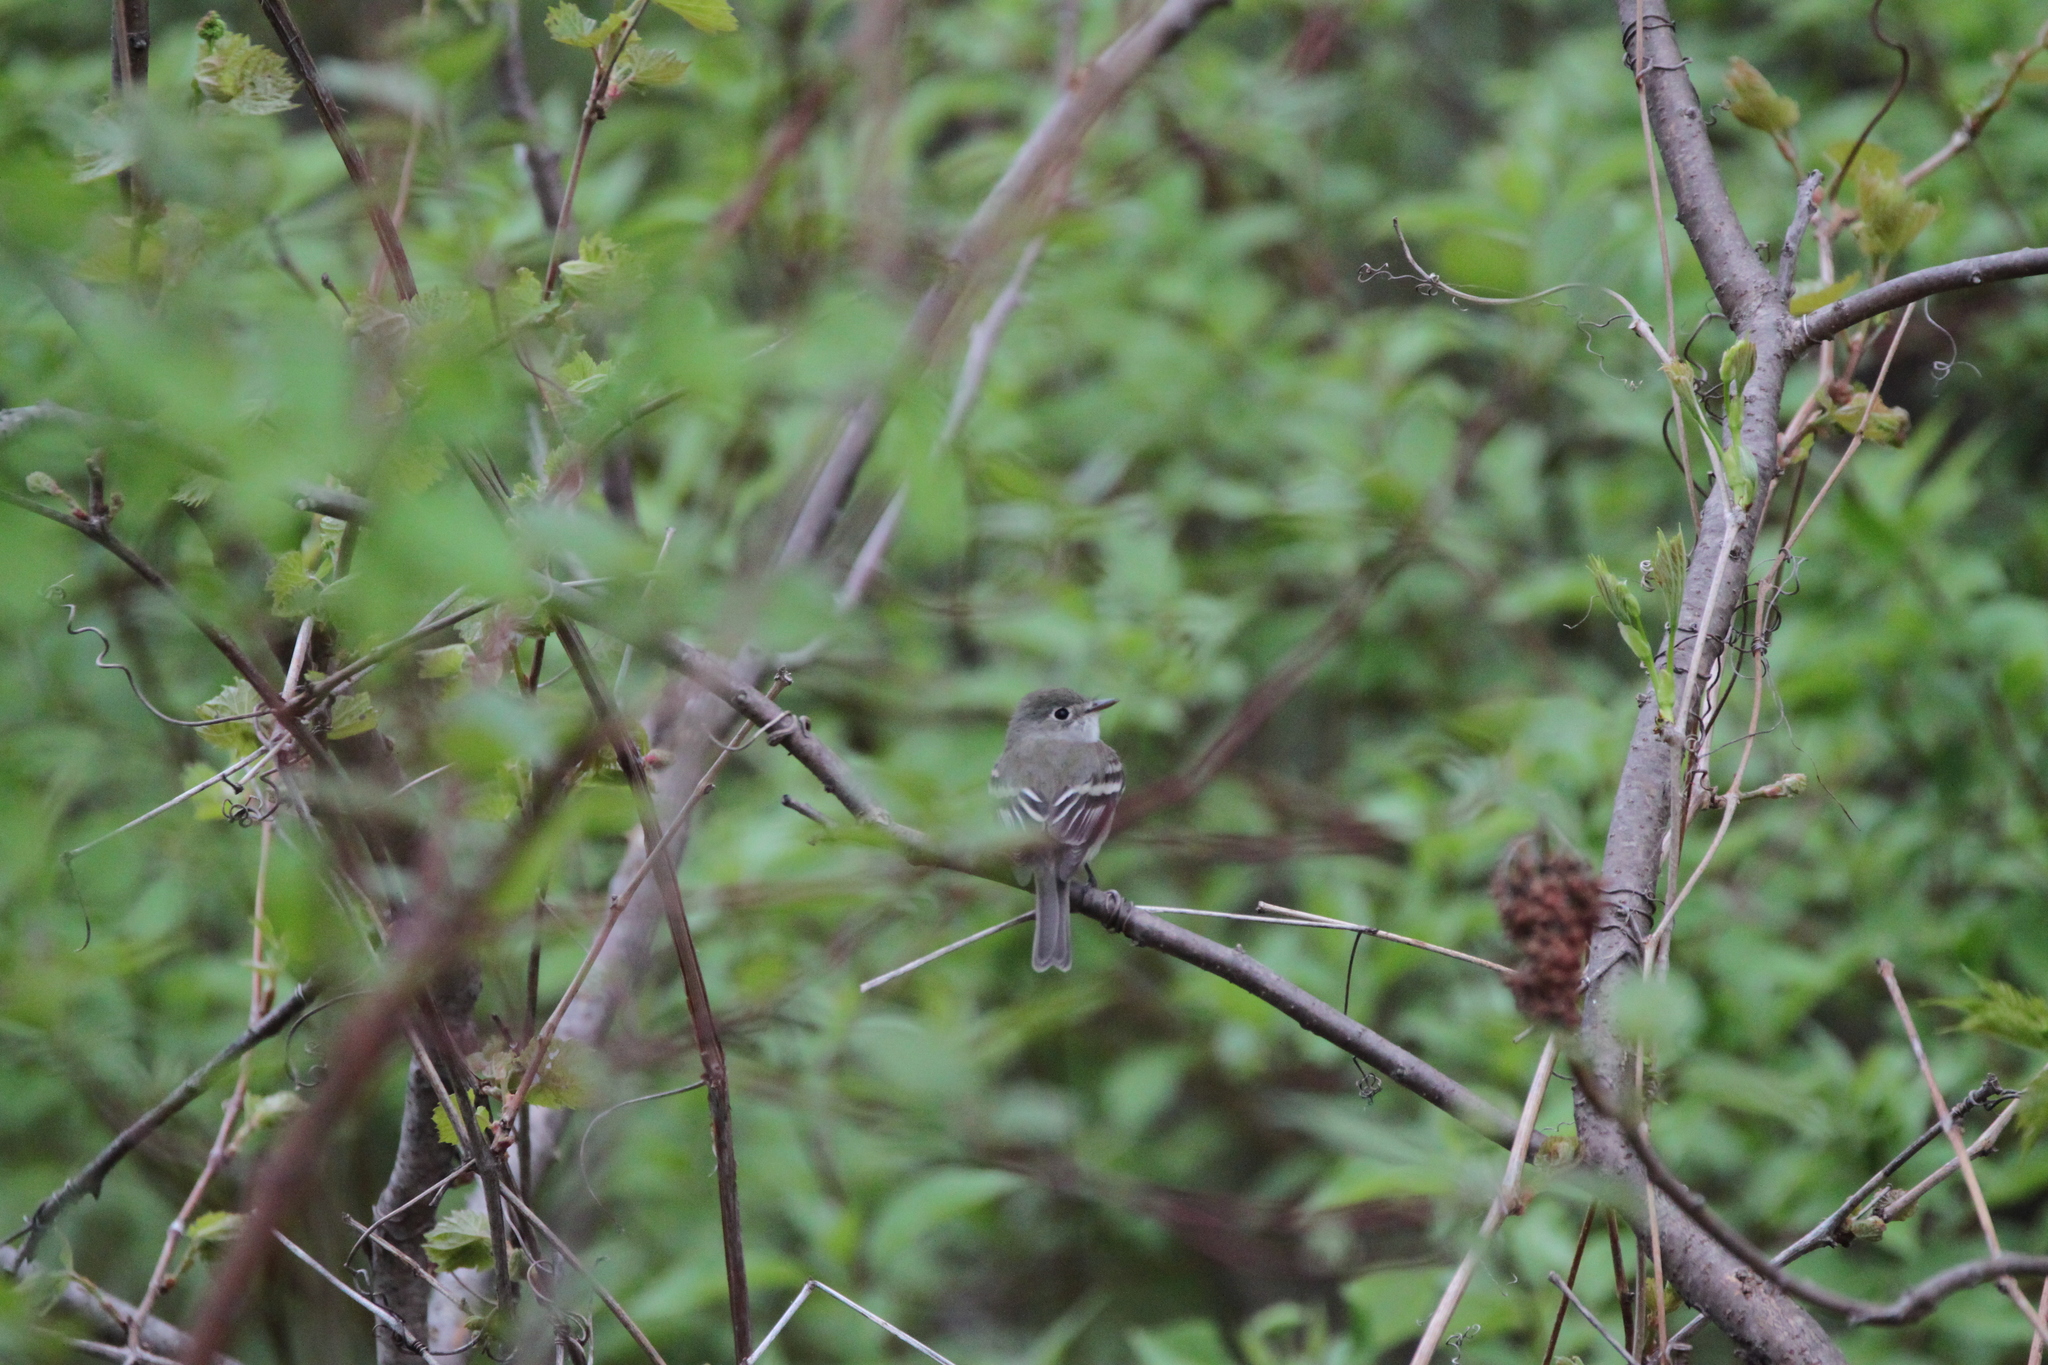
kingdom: Animalia
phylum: Chordata
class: Aves
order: Passeriformes
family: Tyrannidae
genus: Empidonax
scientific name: Empidonax minimus
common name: Least flycatcher
